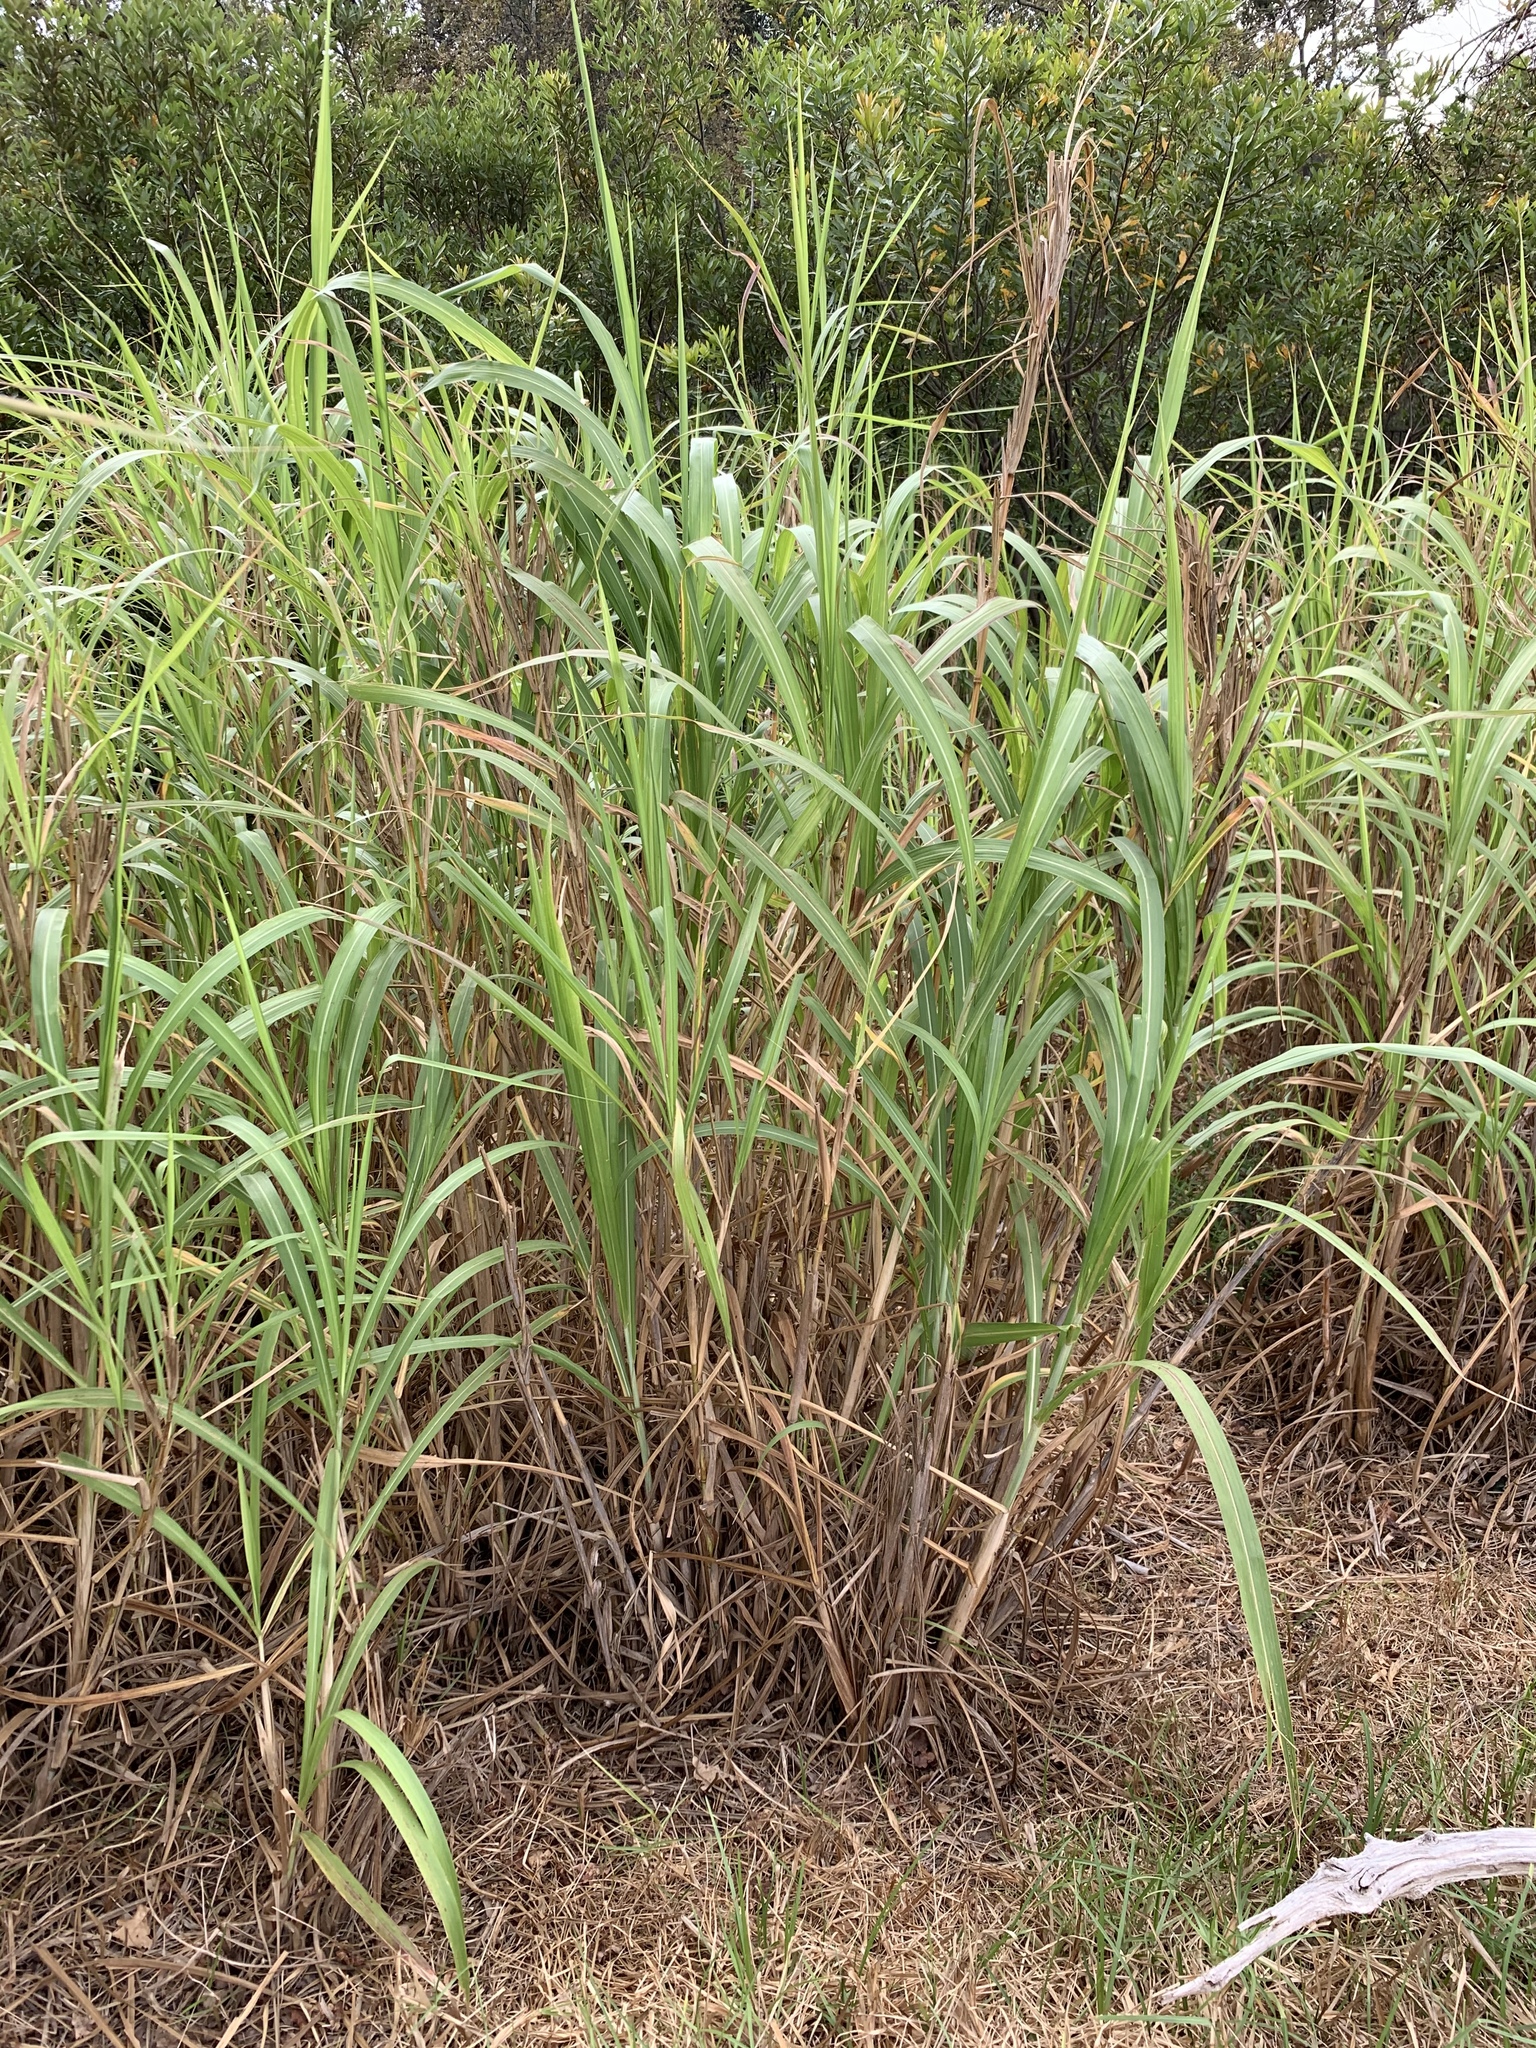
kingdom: Plantae
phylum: Tracheophyta
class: Liliopsida
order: Poales
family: Poaceae
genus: Cenchrus
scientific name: Cenchrus purpureus
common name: Elephant grass
